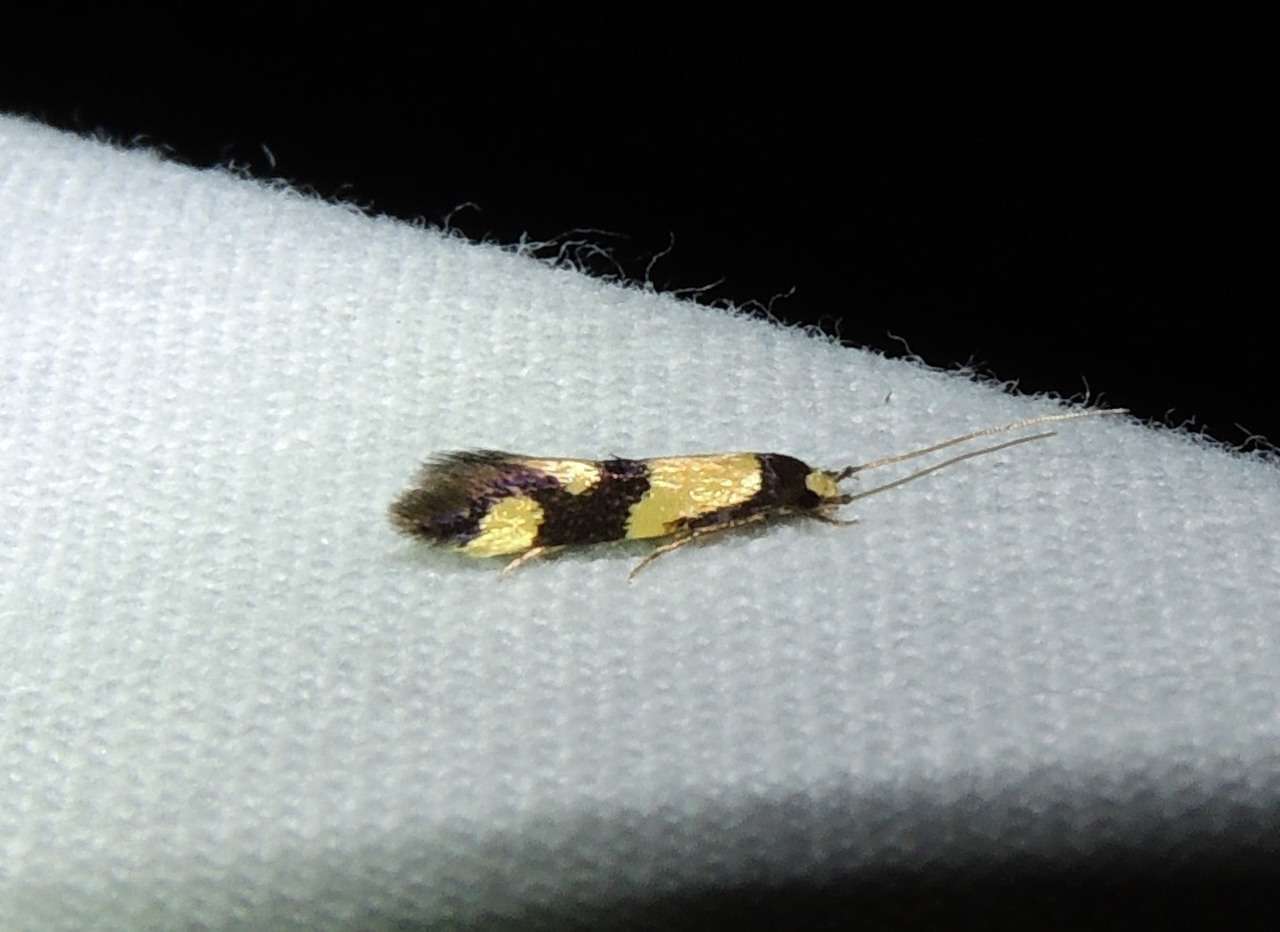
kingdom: Animalia
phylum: Arthropoda
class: Insecta
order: Lepidoptera
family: Tineidae
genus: Opogona
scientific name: Opogona comptella
